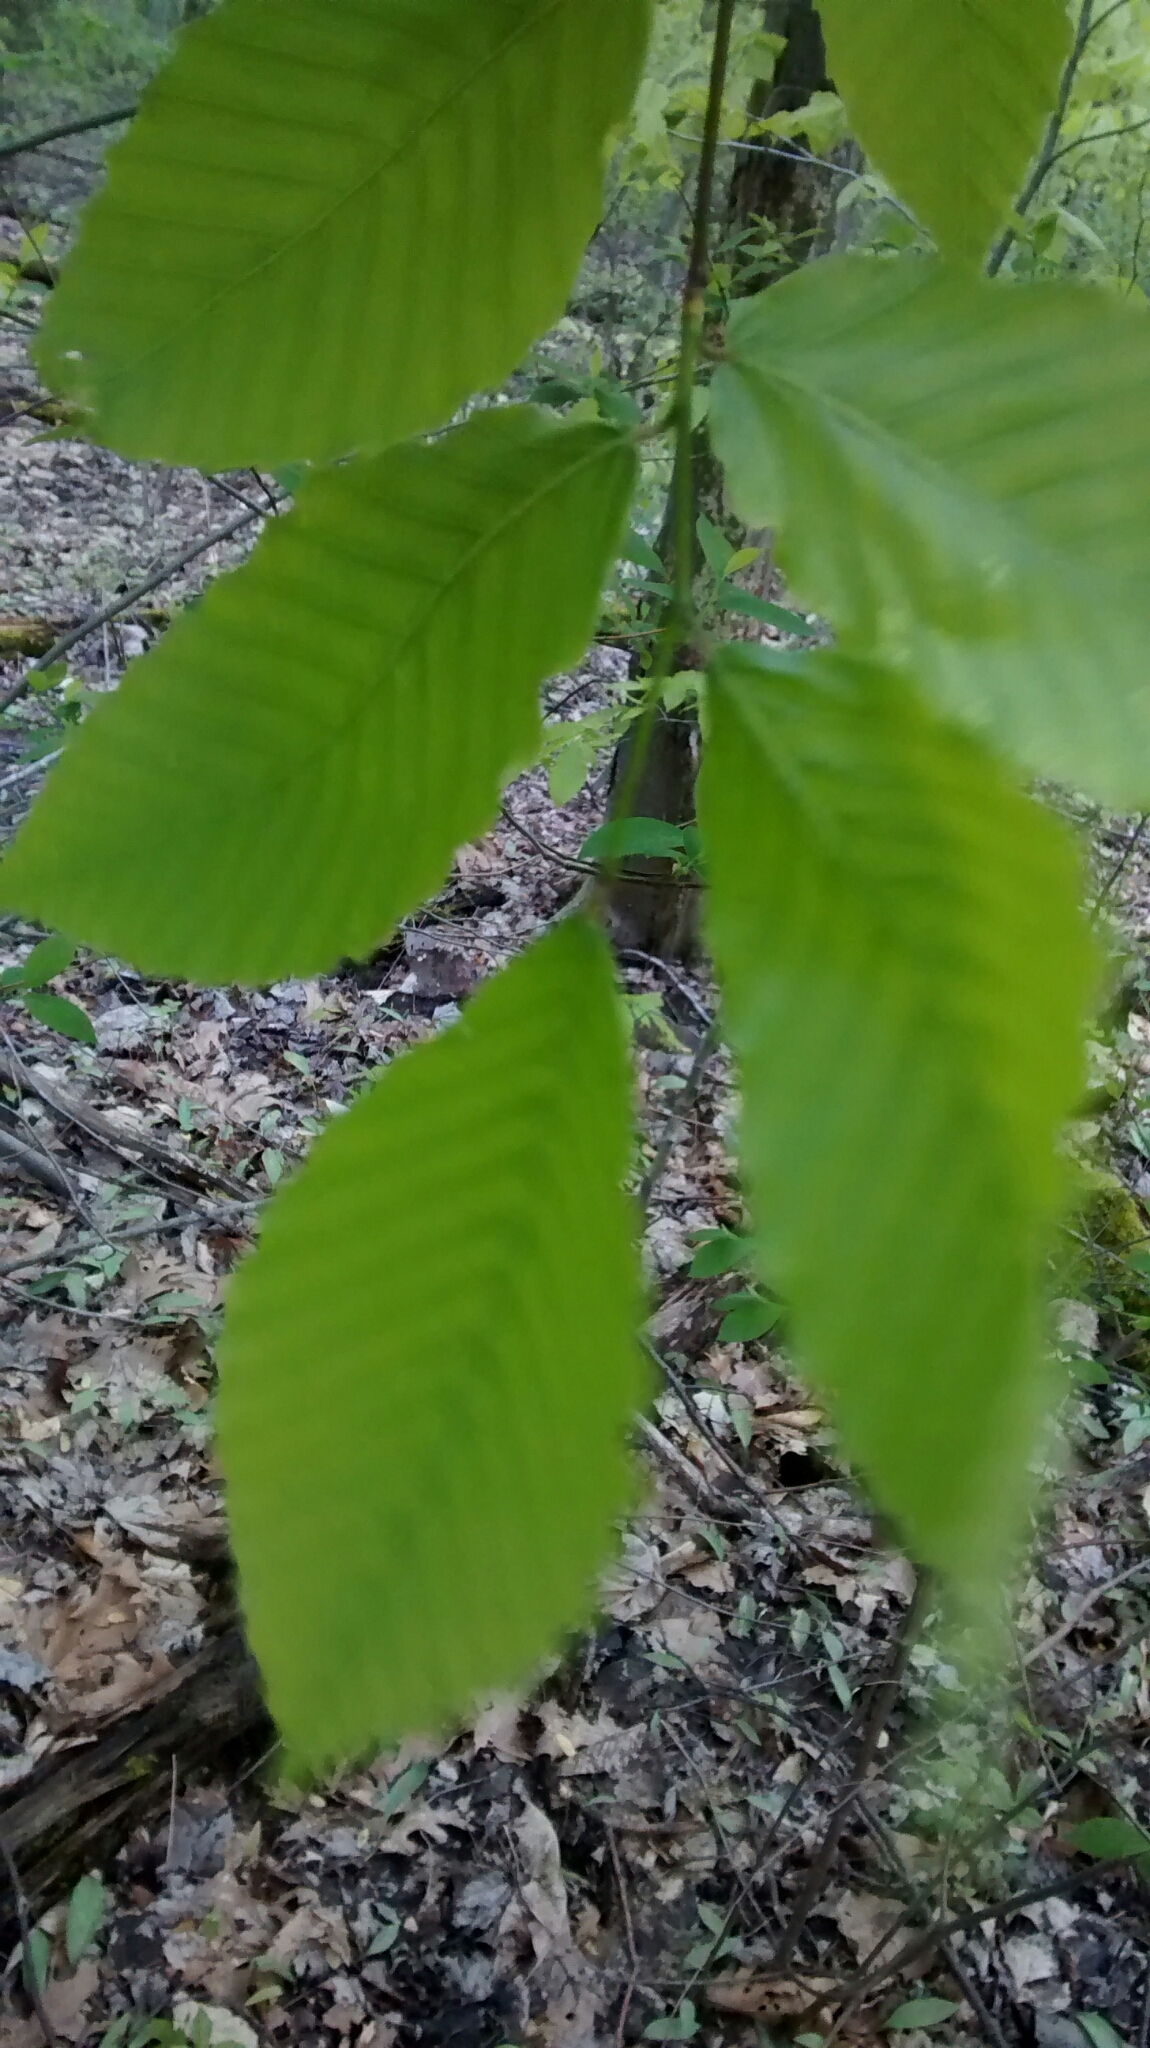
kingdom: Plantae
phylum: Tracheophyta
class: Magnoliopsida
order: Fagales
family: Fagaceae
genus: Fagus
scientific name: Fagus grandifolia
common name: American beech
